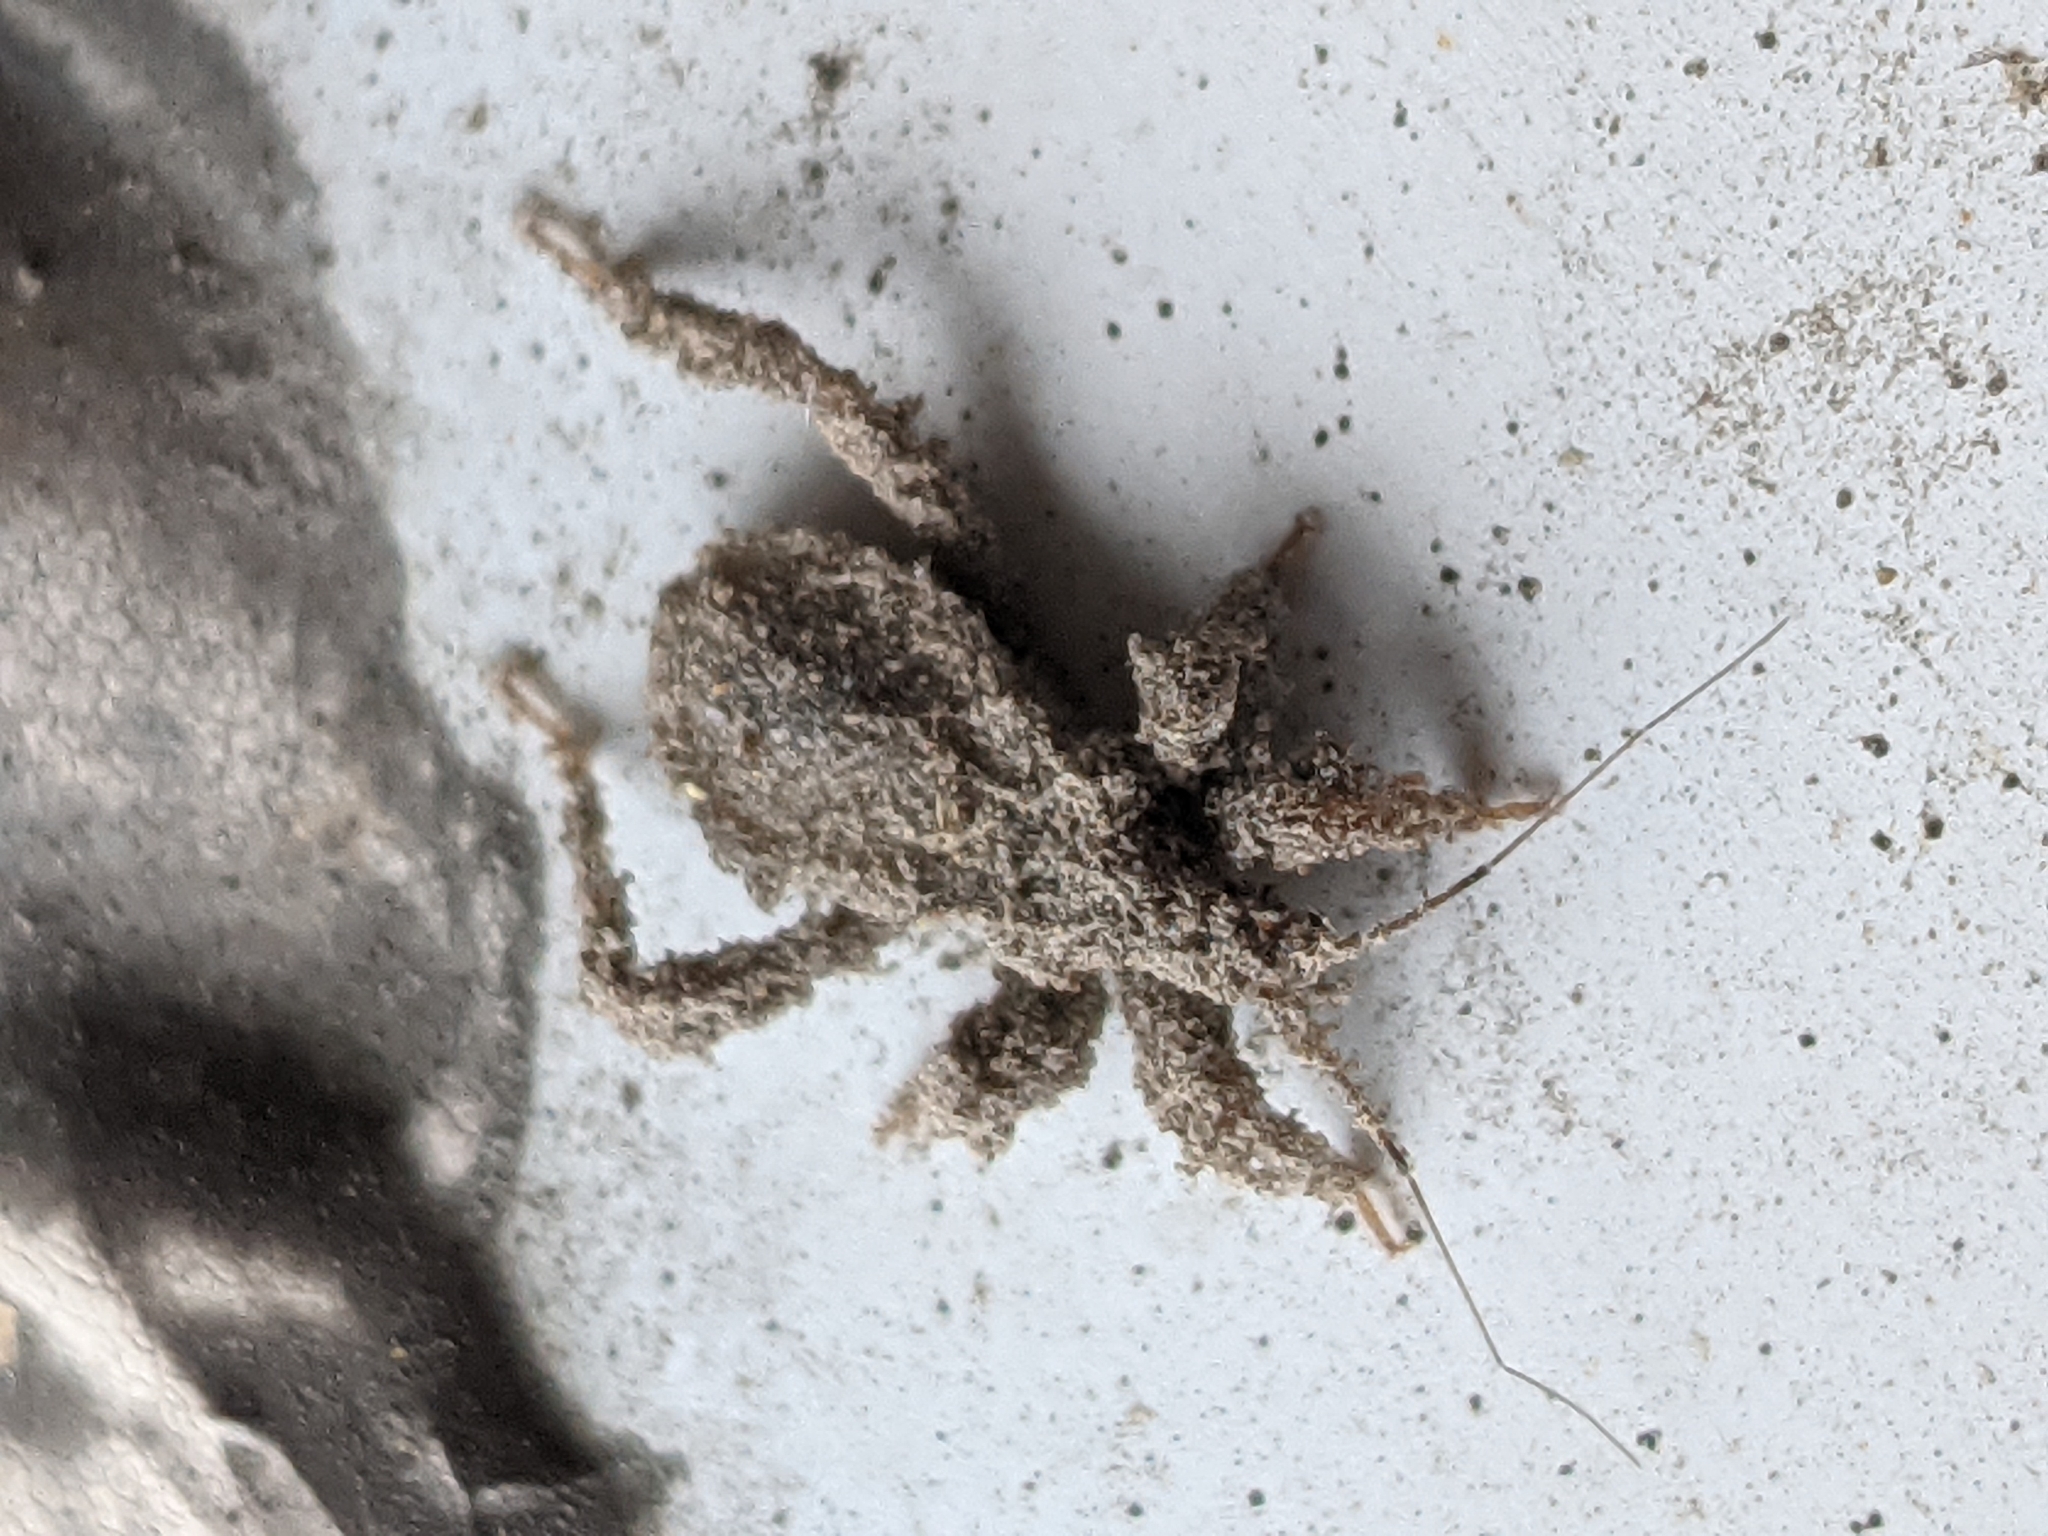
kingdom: Animalia
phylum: Arthropoda
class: Insecta
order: Hemiptera
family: Reduviidae
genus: Reduvius
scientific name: Reduvius personatus
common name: Masked hunter
